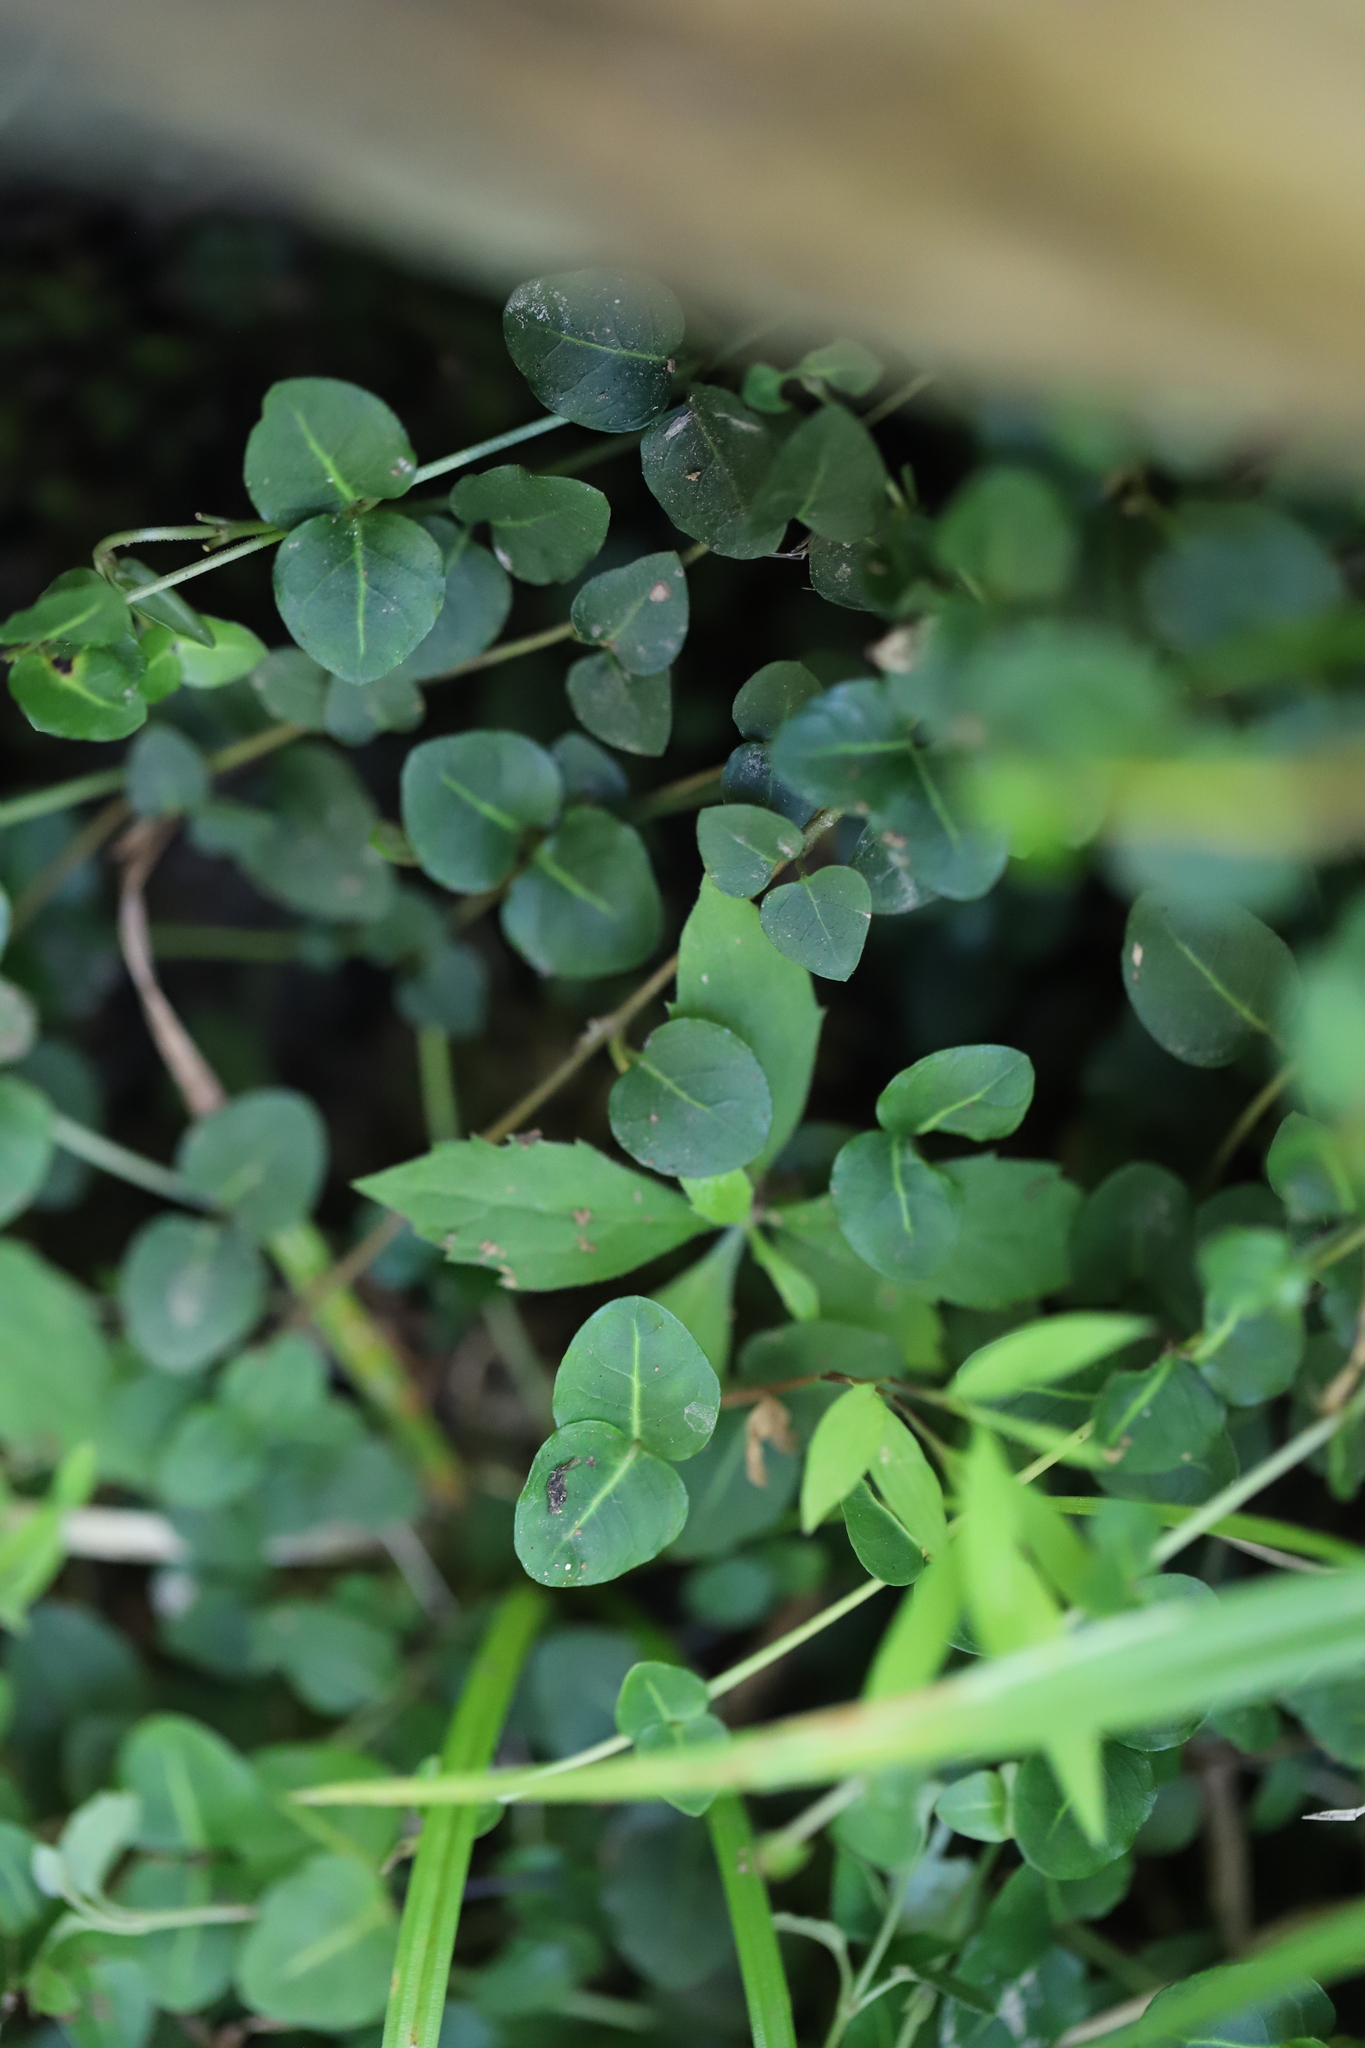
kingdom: Plantae
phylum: Tracheophyta
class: Magnoliopsida
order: Gentianales
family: Rubiaceae
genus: Mitchella
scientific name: Mitchella repens
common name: Partridge-berry
